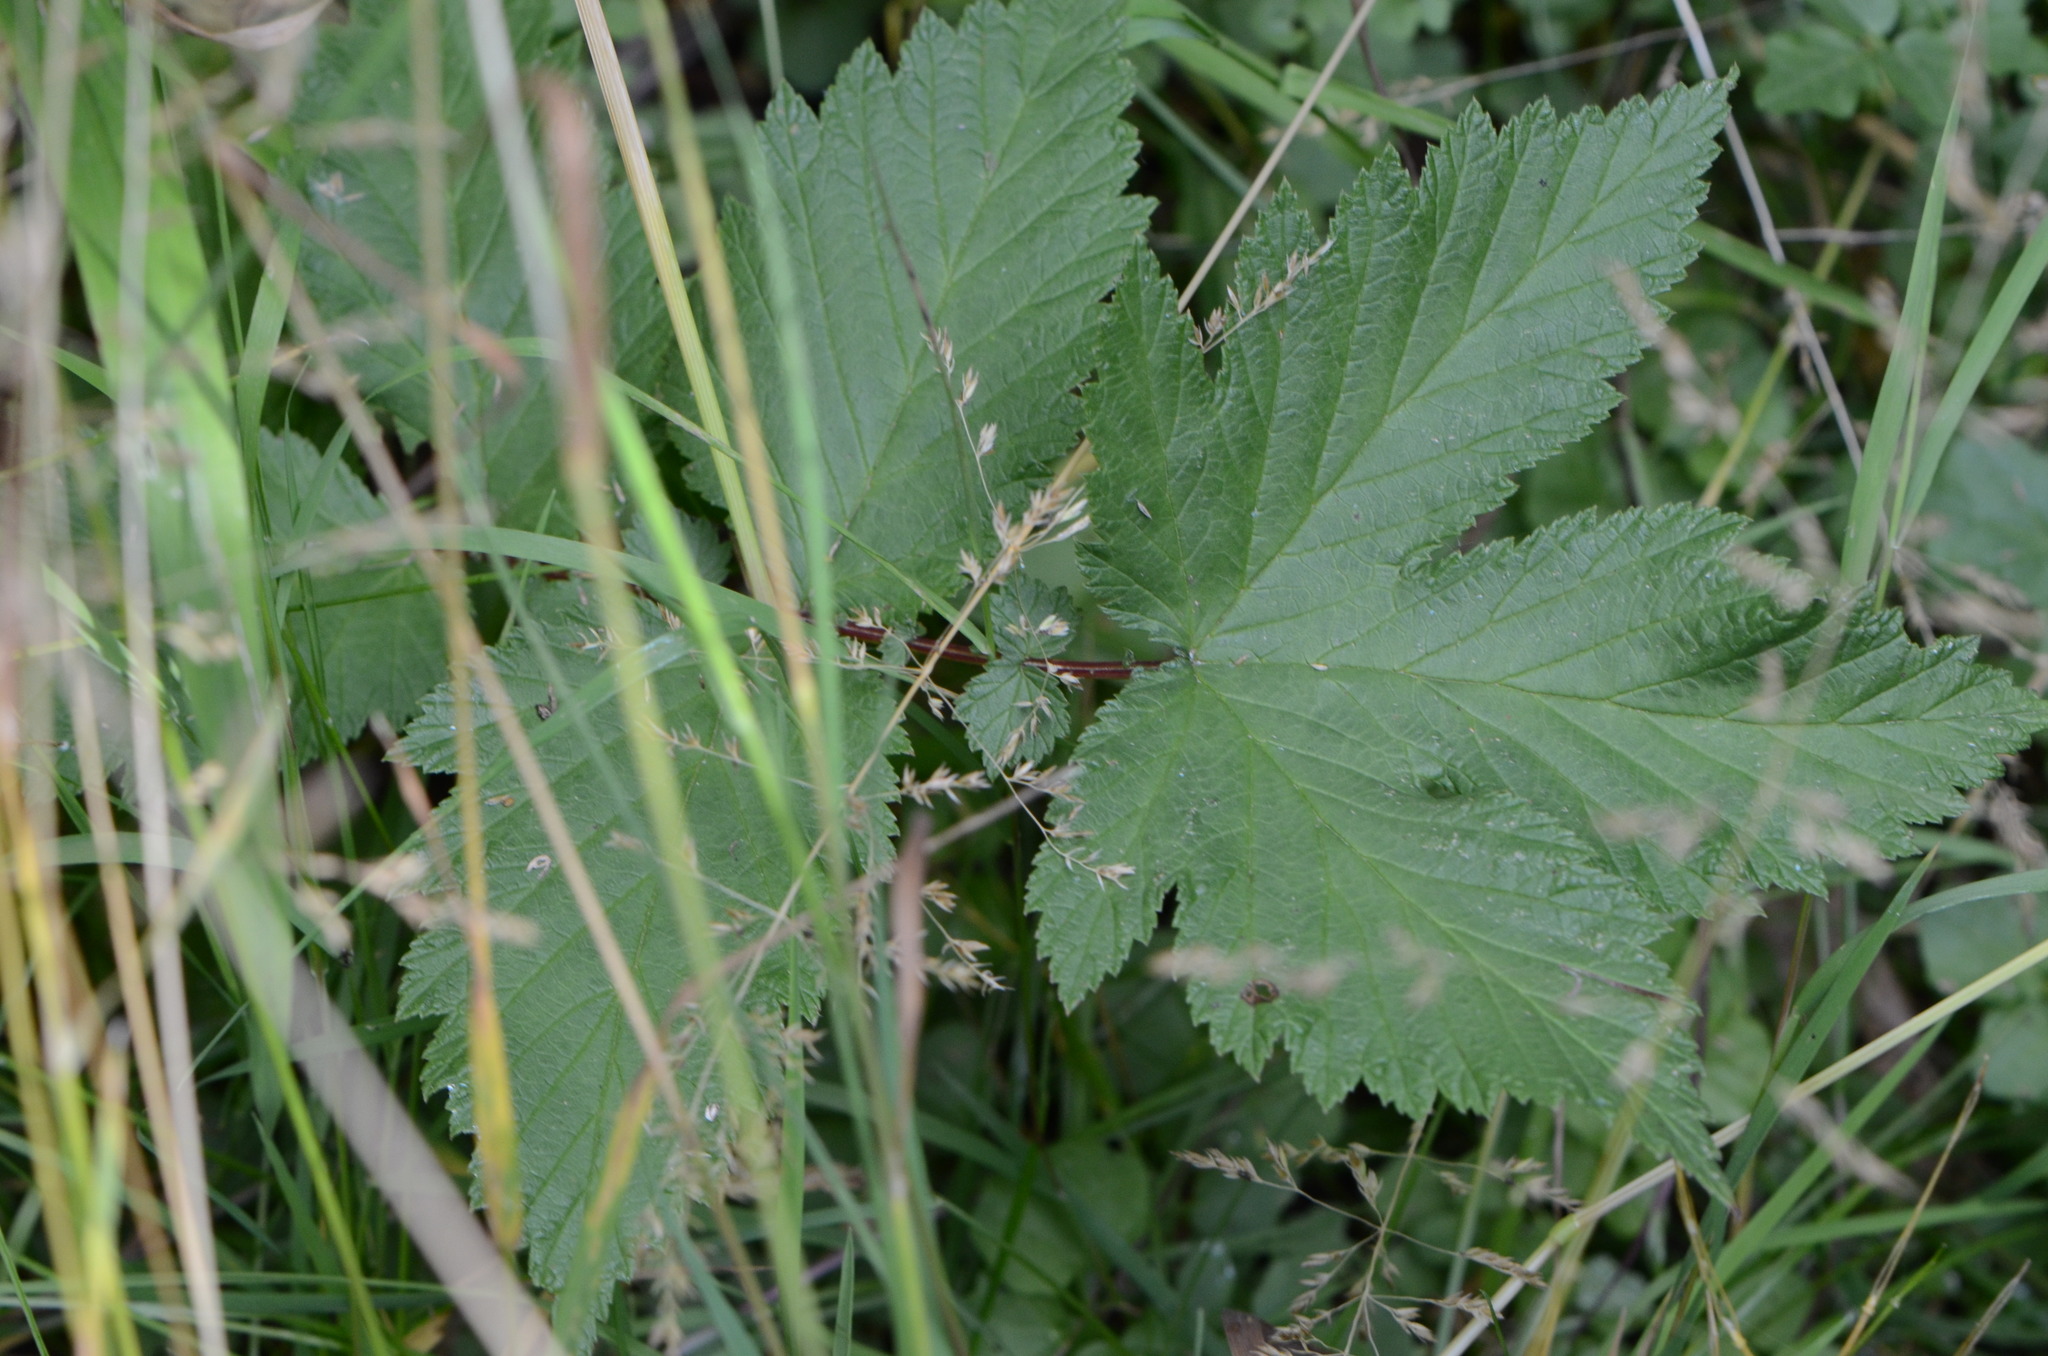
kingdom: Plantae
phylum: Tracheophyta
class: Magnoliopsida
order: Rosales
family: Rosaceae
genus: Filipendula
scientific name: Filipendula ulmaria
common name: Meadowsweet
